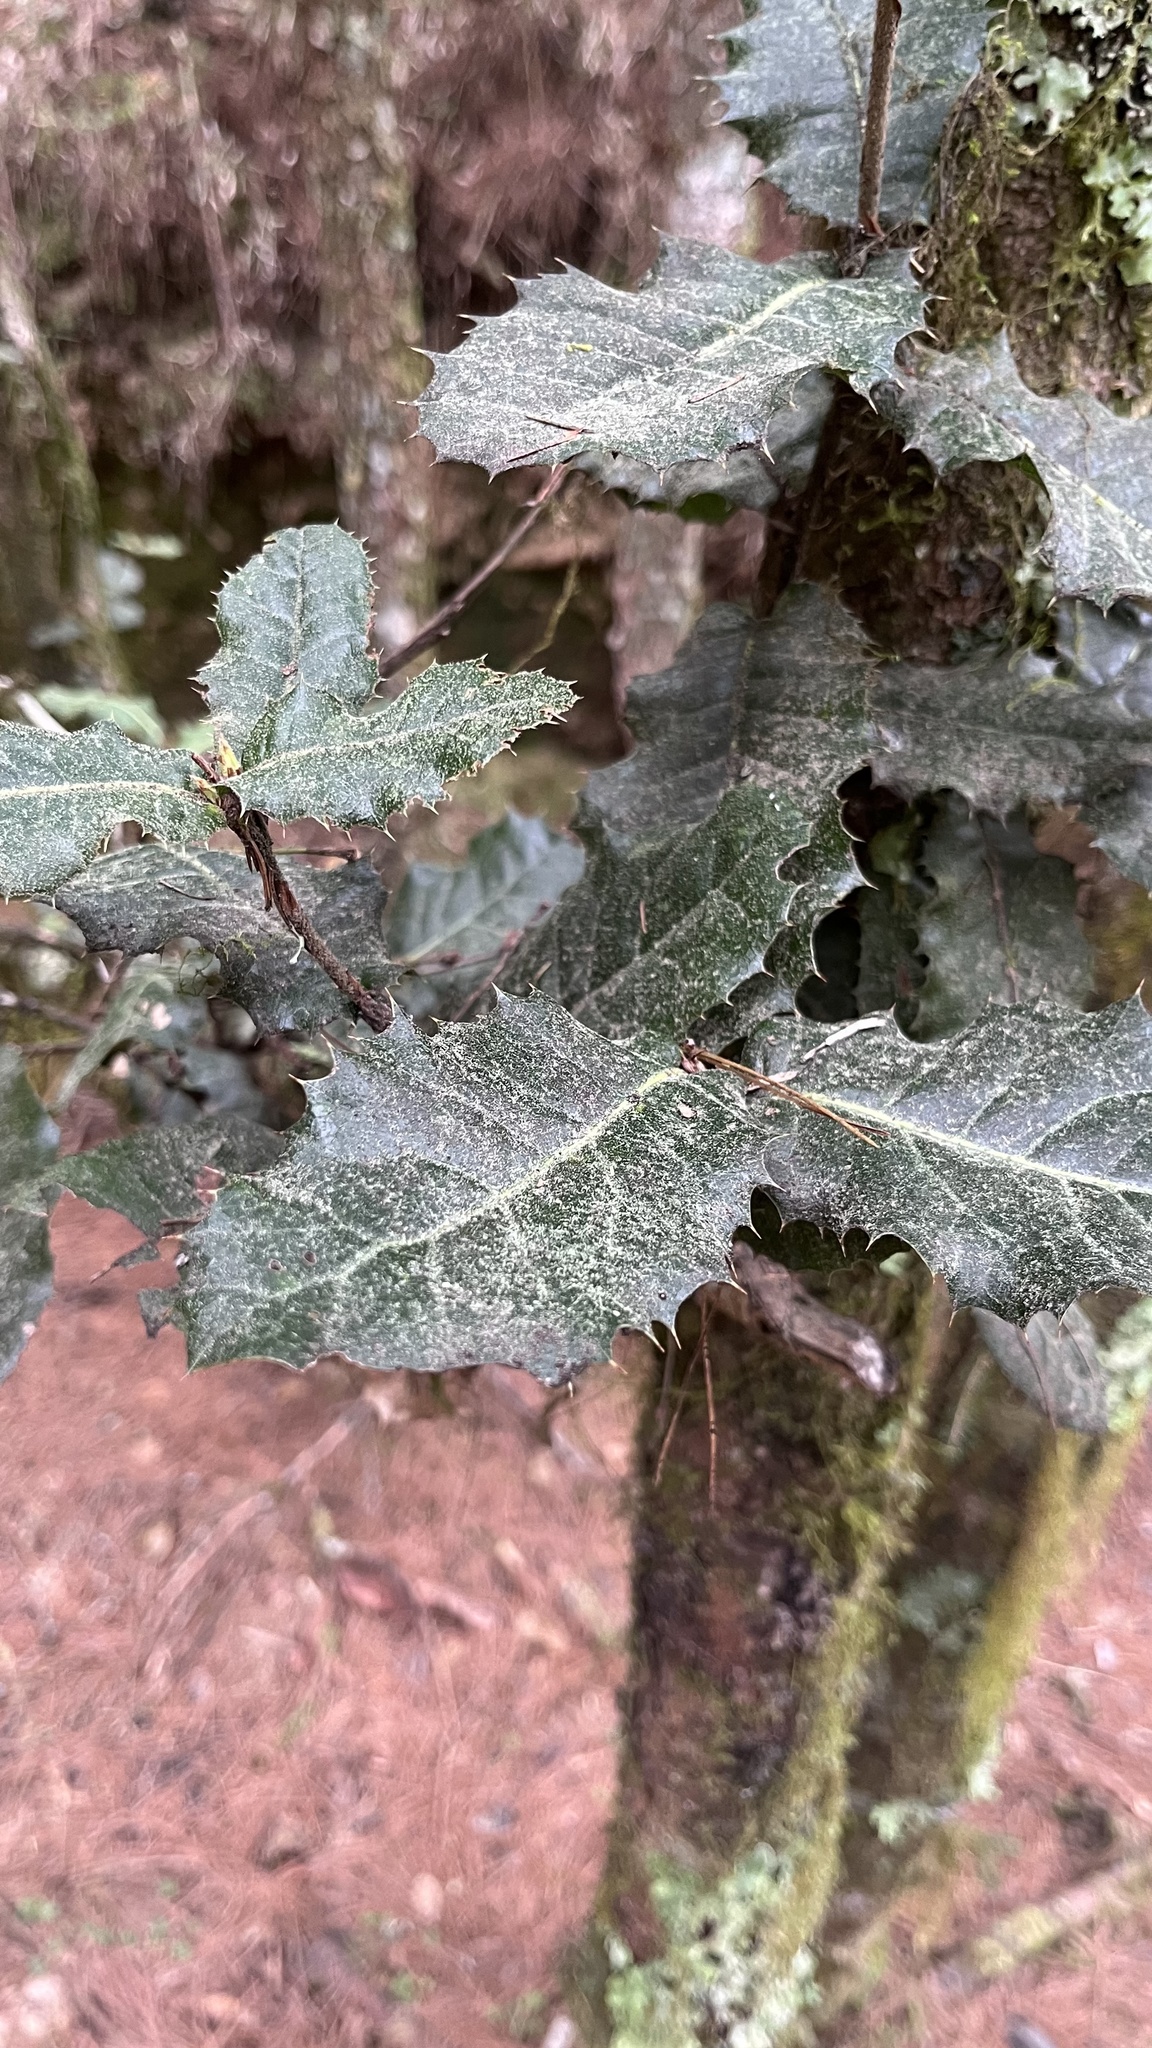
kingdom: Plantae
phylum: Tracheophyta
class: Magnoliopsida
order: Fagales
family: Fagaceae
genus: Quercus
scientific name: Quercus spinosa
